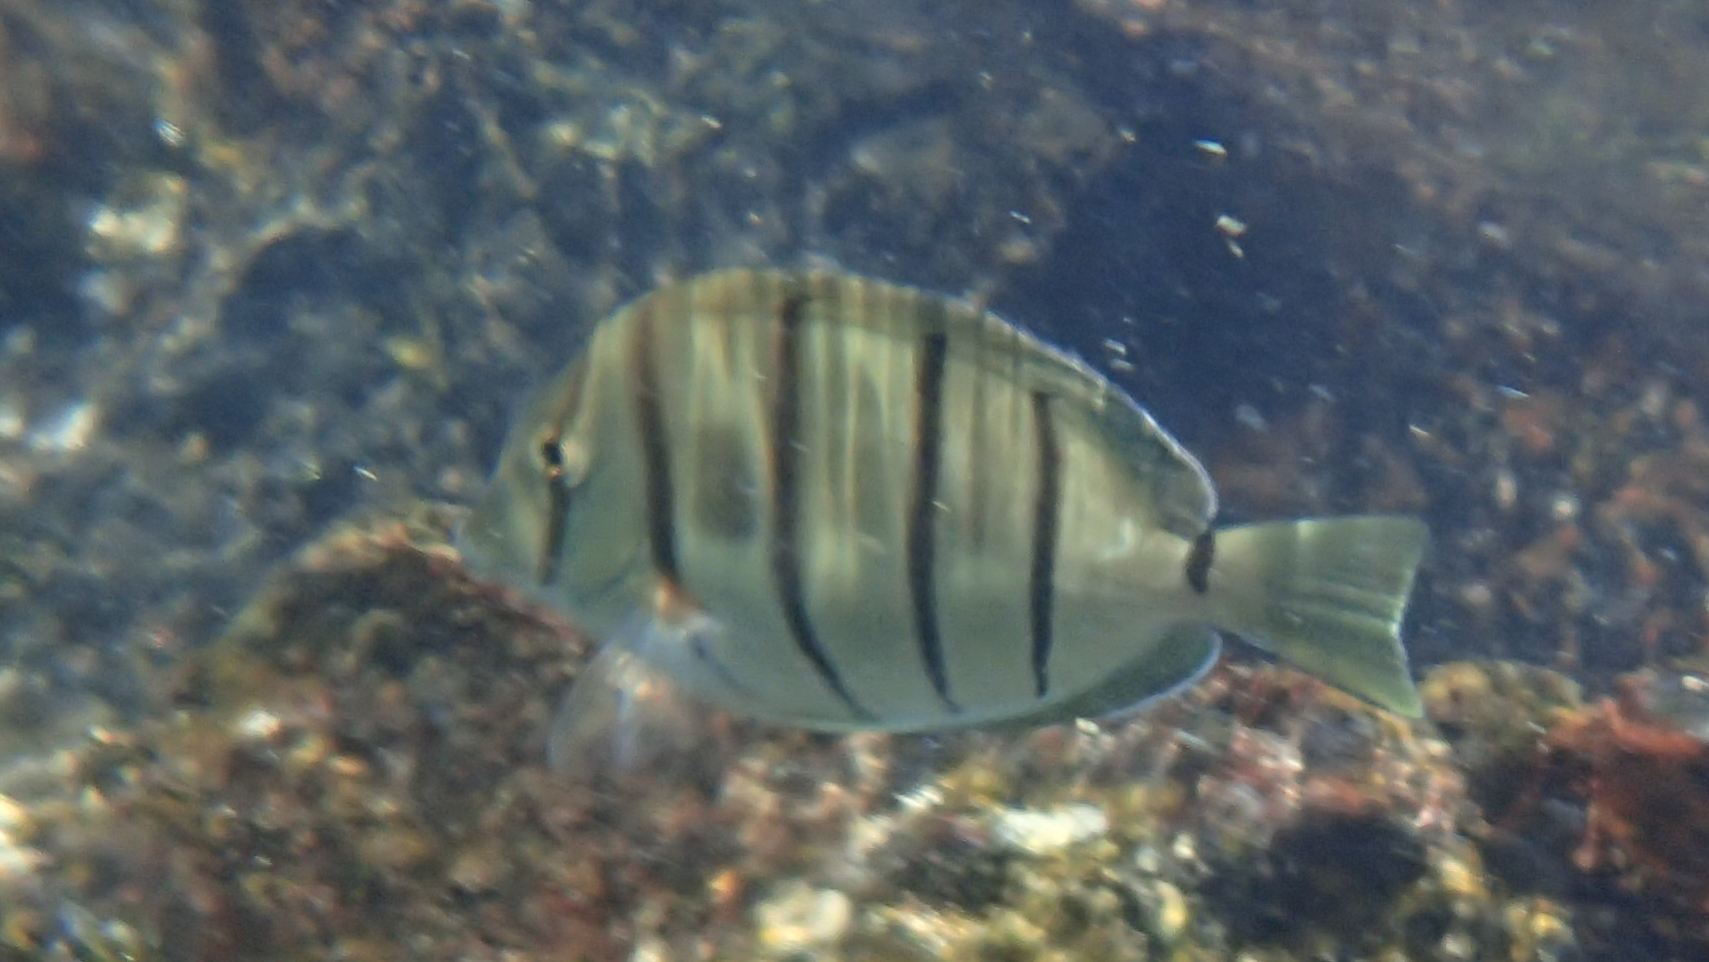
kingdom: Animalia
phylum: Chordata
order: Perciformes
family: Acanthuridae
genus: Acanthurus
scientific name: Acanthurus triostegus
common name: Convict surgeonfish
